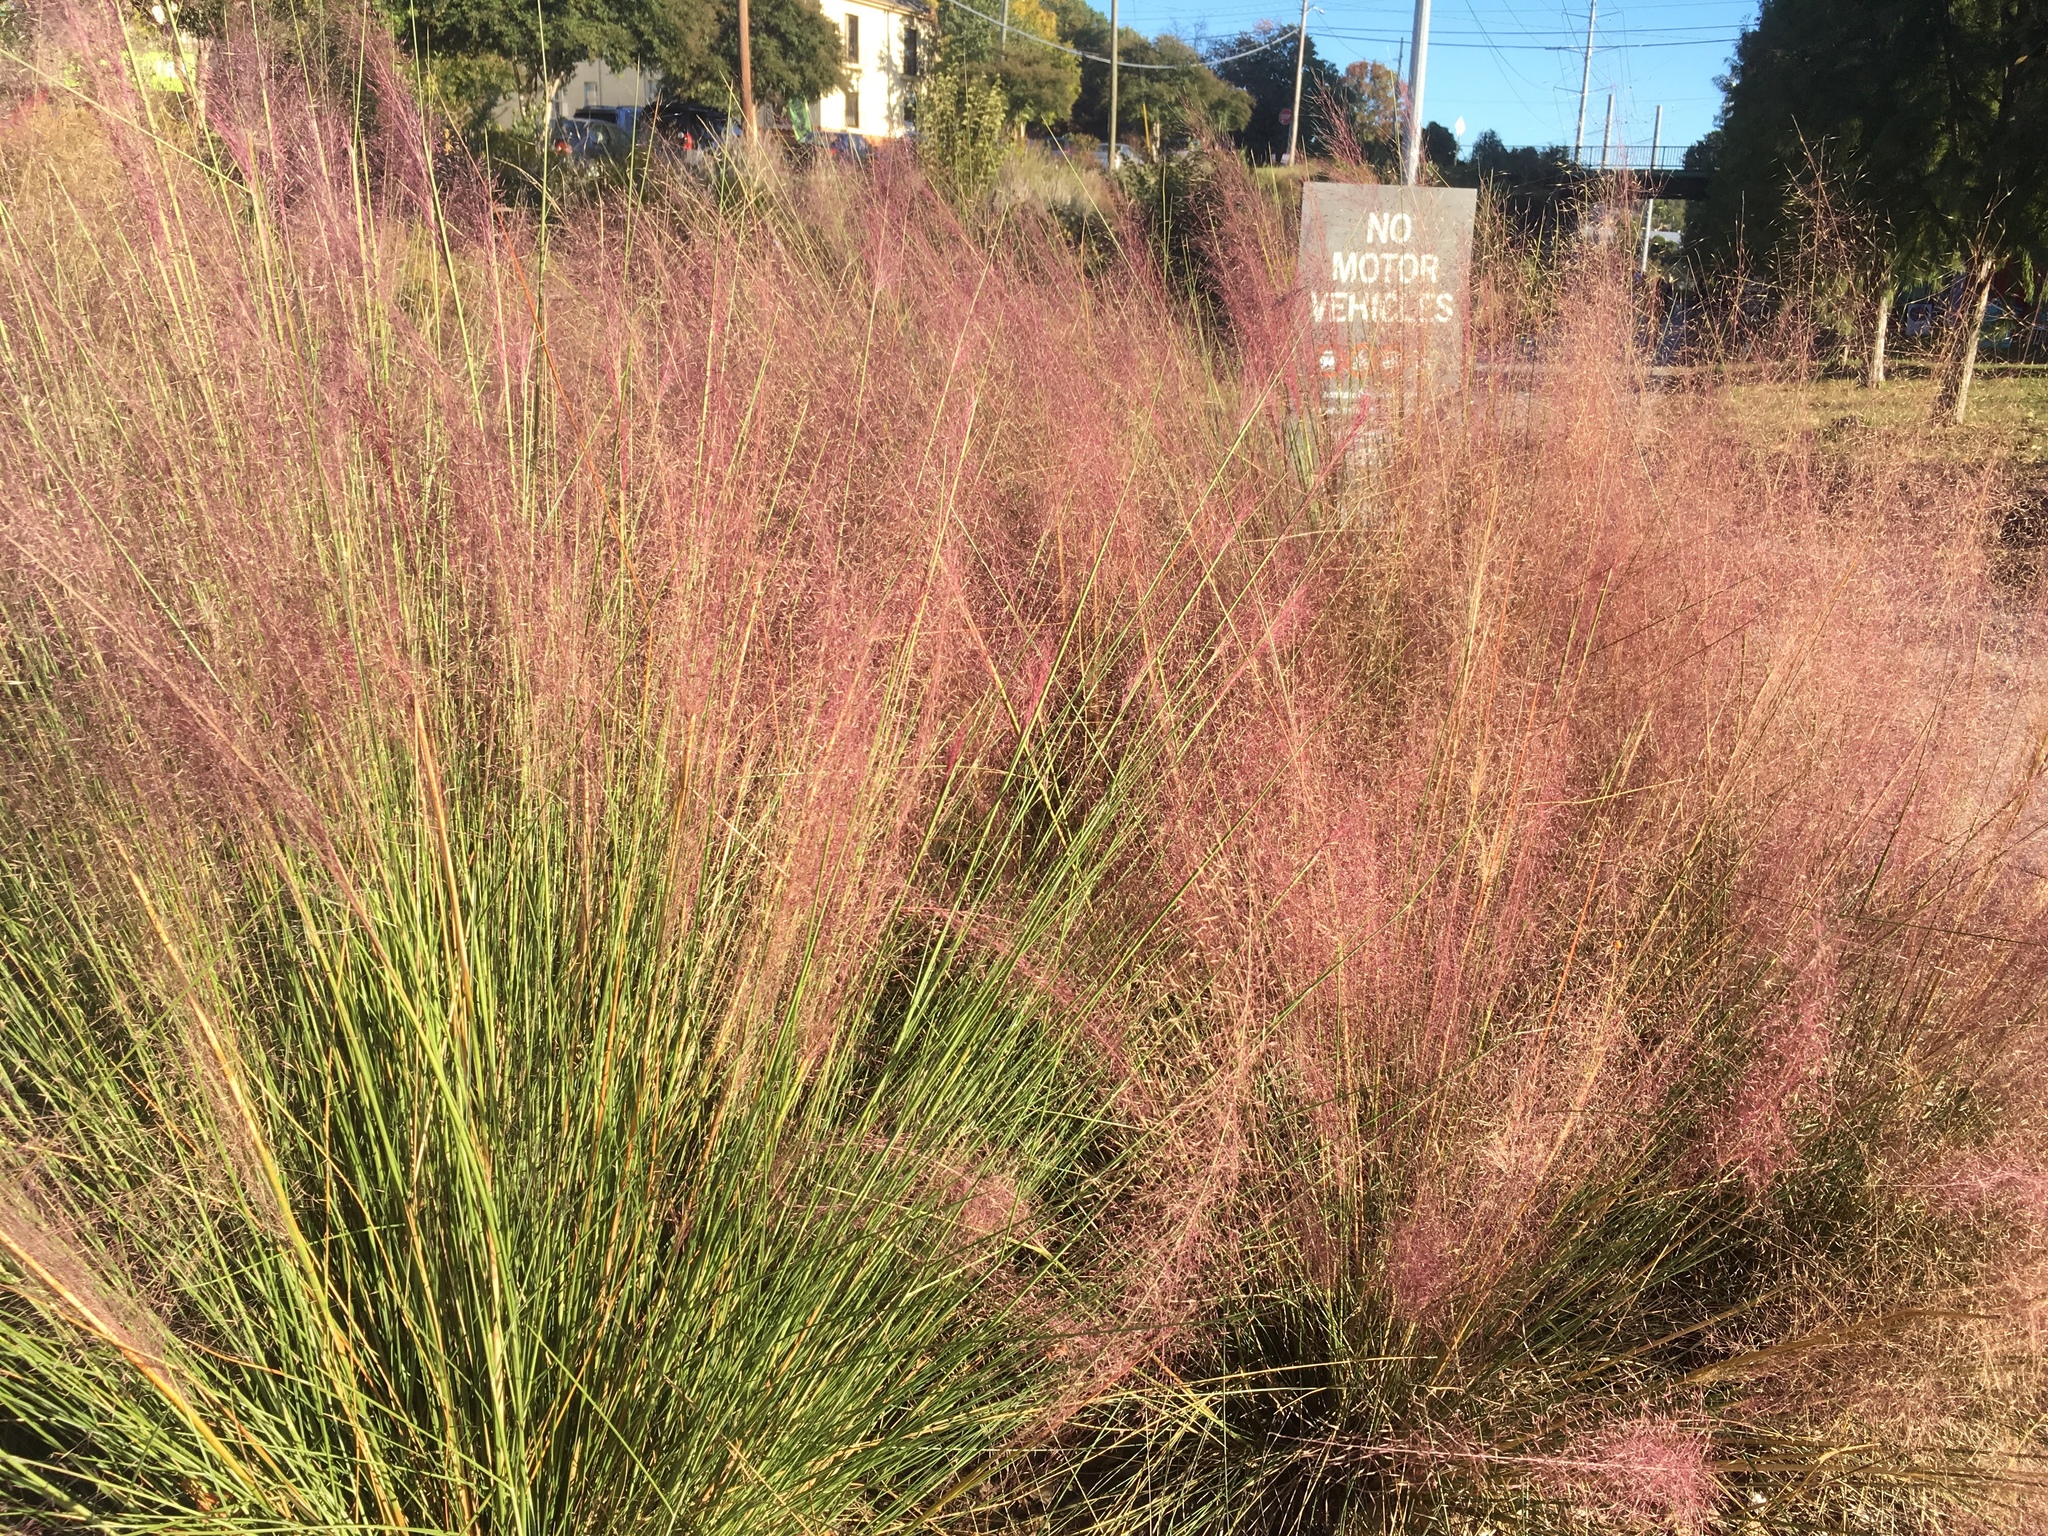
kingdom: Plantae
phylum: Tracheophyta
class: Liliopsida
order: Poales
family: Poaceae
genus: Muhlenbergia
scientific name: Muhlenbergia capillaris
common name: Purple grass
